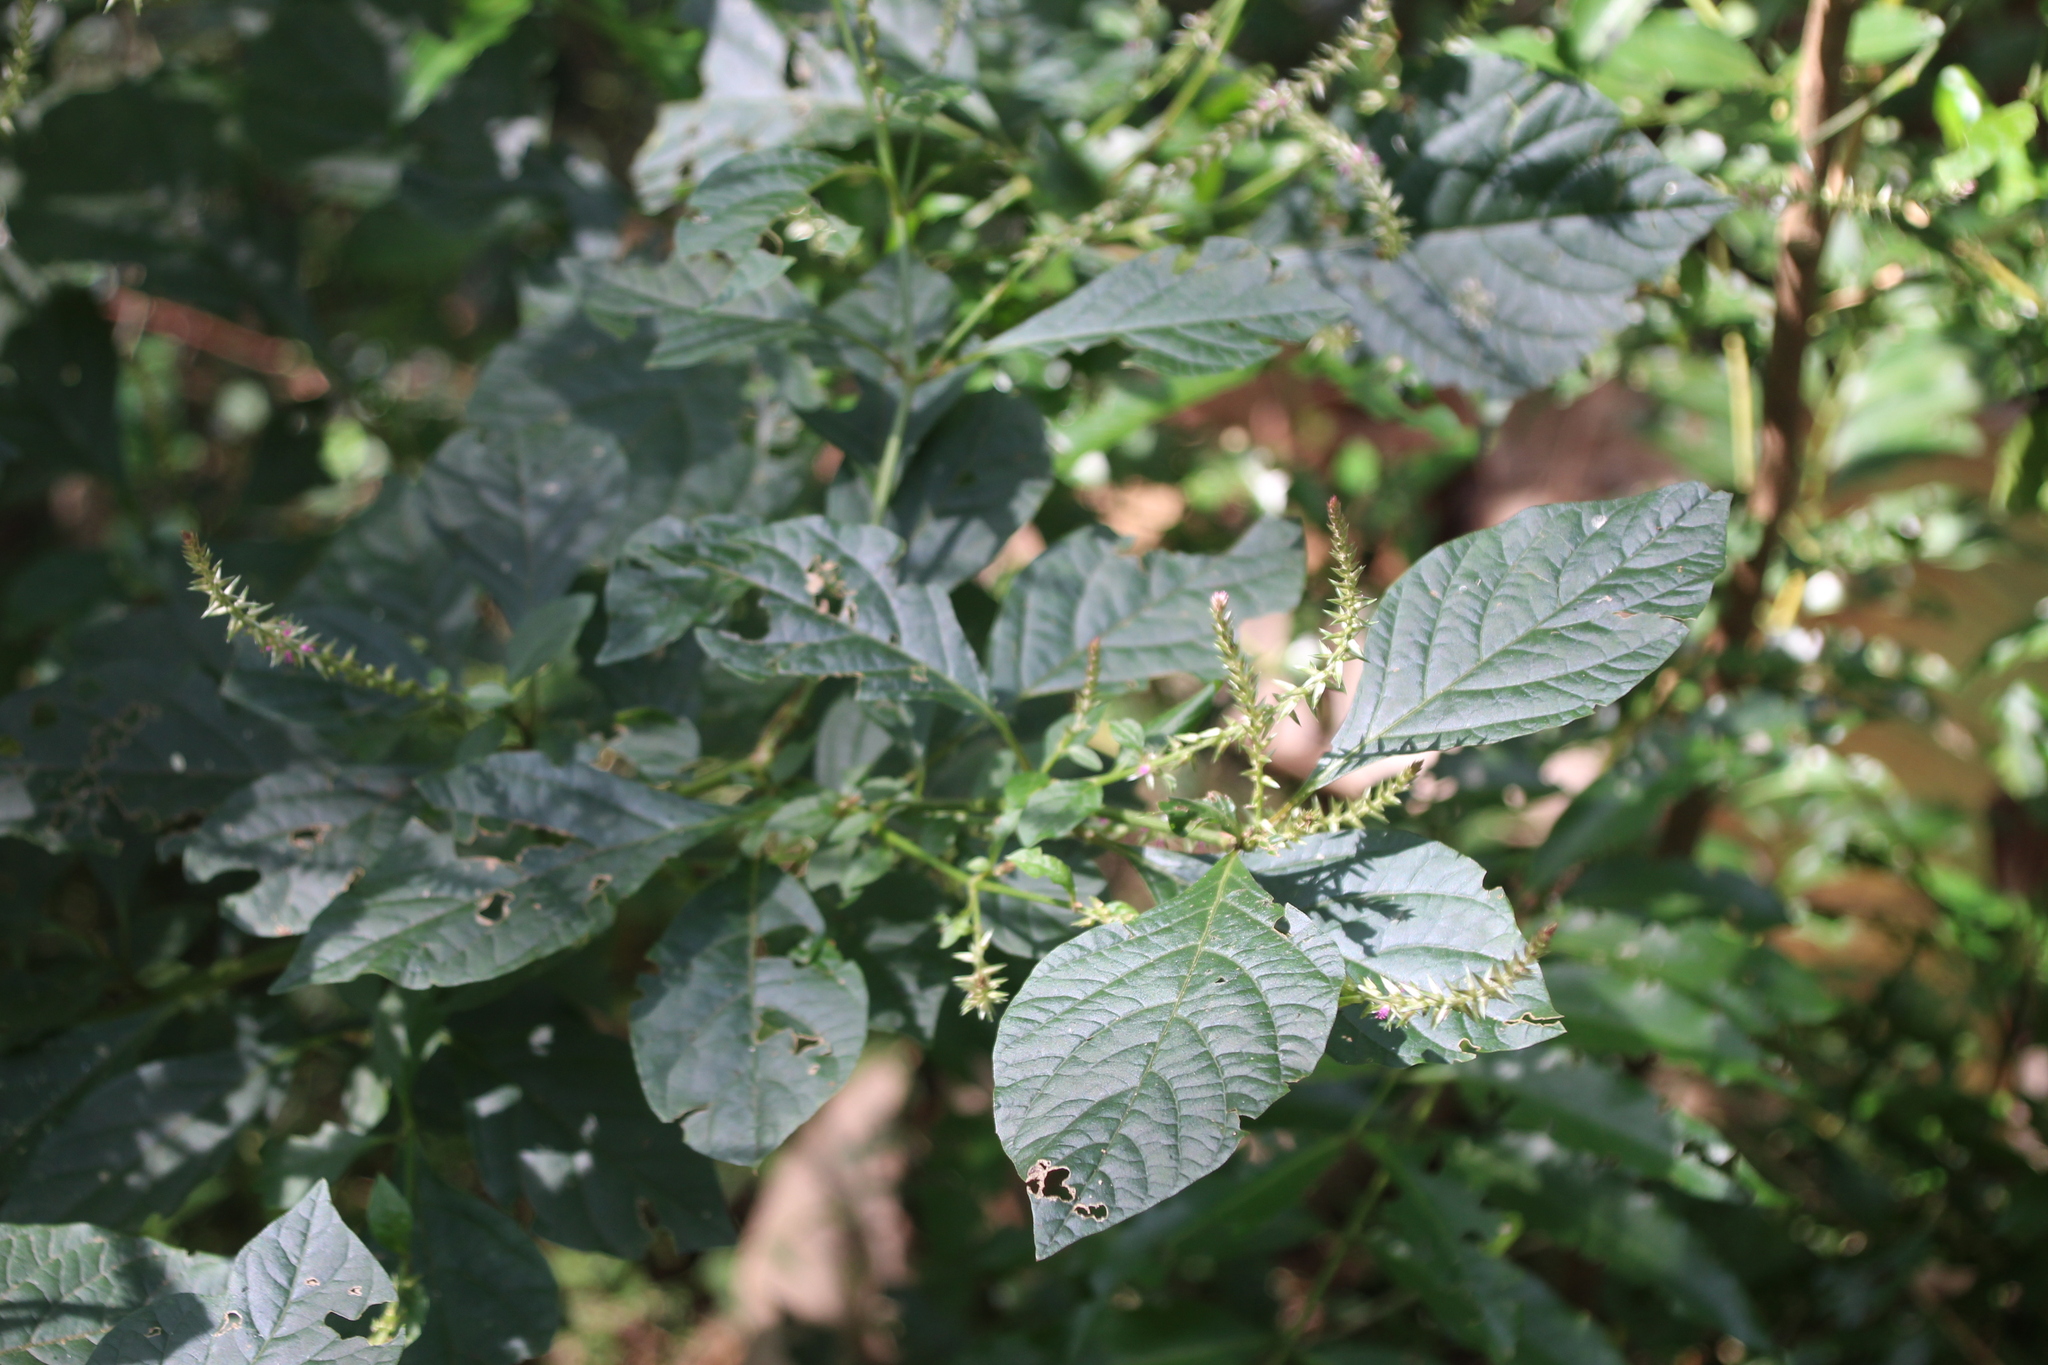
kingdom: Plantae
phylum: Tracheophyta
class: Magnoliopsida
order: Caryophyllales
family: Amaranthaceae
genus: Achyranthes
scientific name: Achyranthes aspera
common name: Devil's horsewhip
